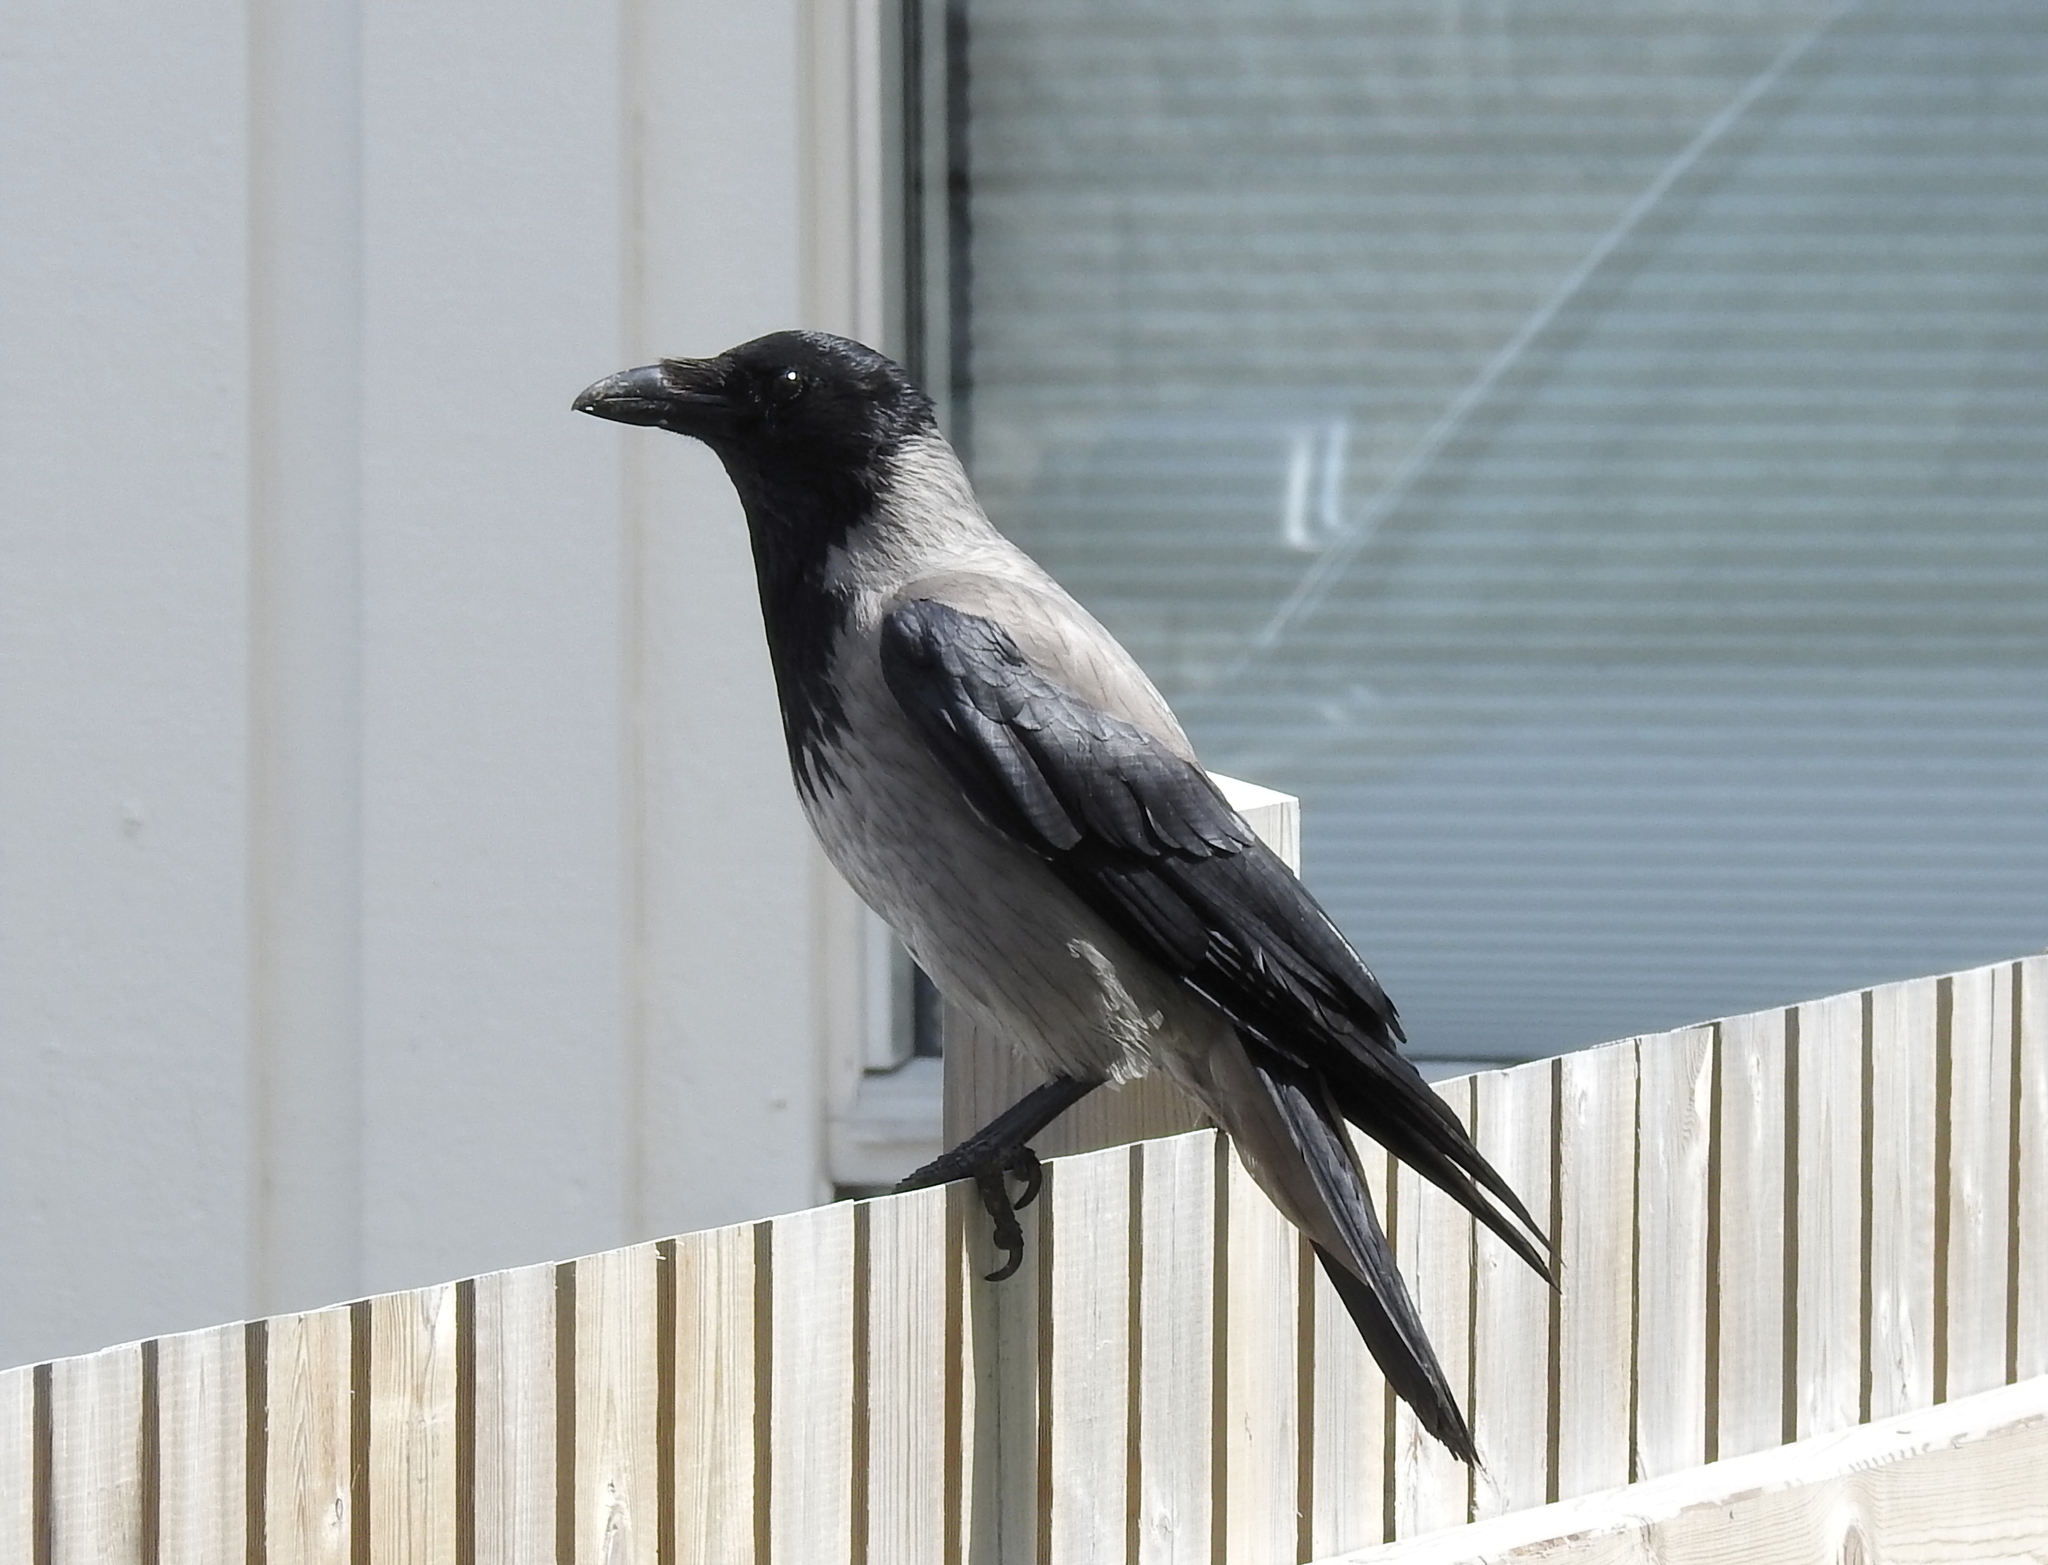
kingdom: Animalia
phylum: Chordata
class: Aves
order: Passeriformes
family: Corvidae
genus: Corvus
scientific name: Corvus cornix
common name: Hooded crow
